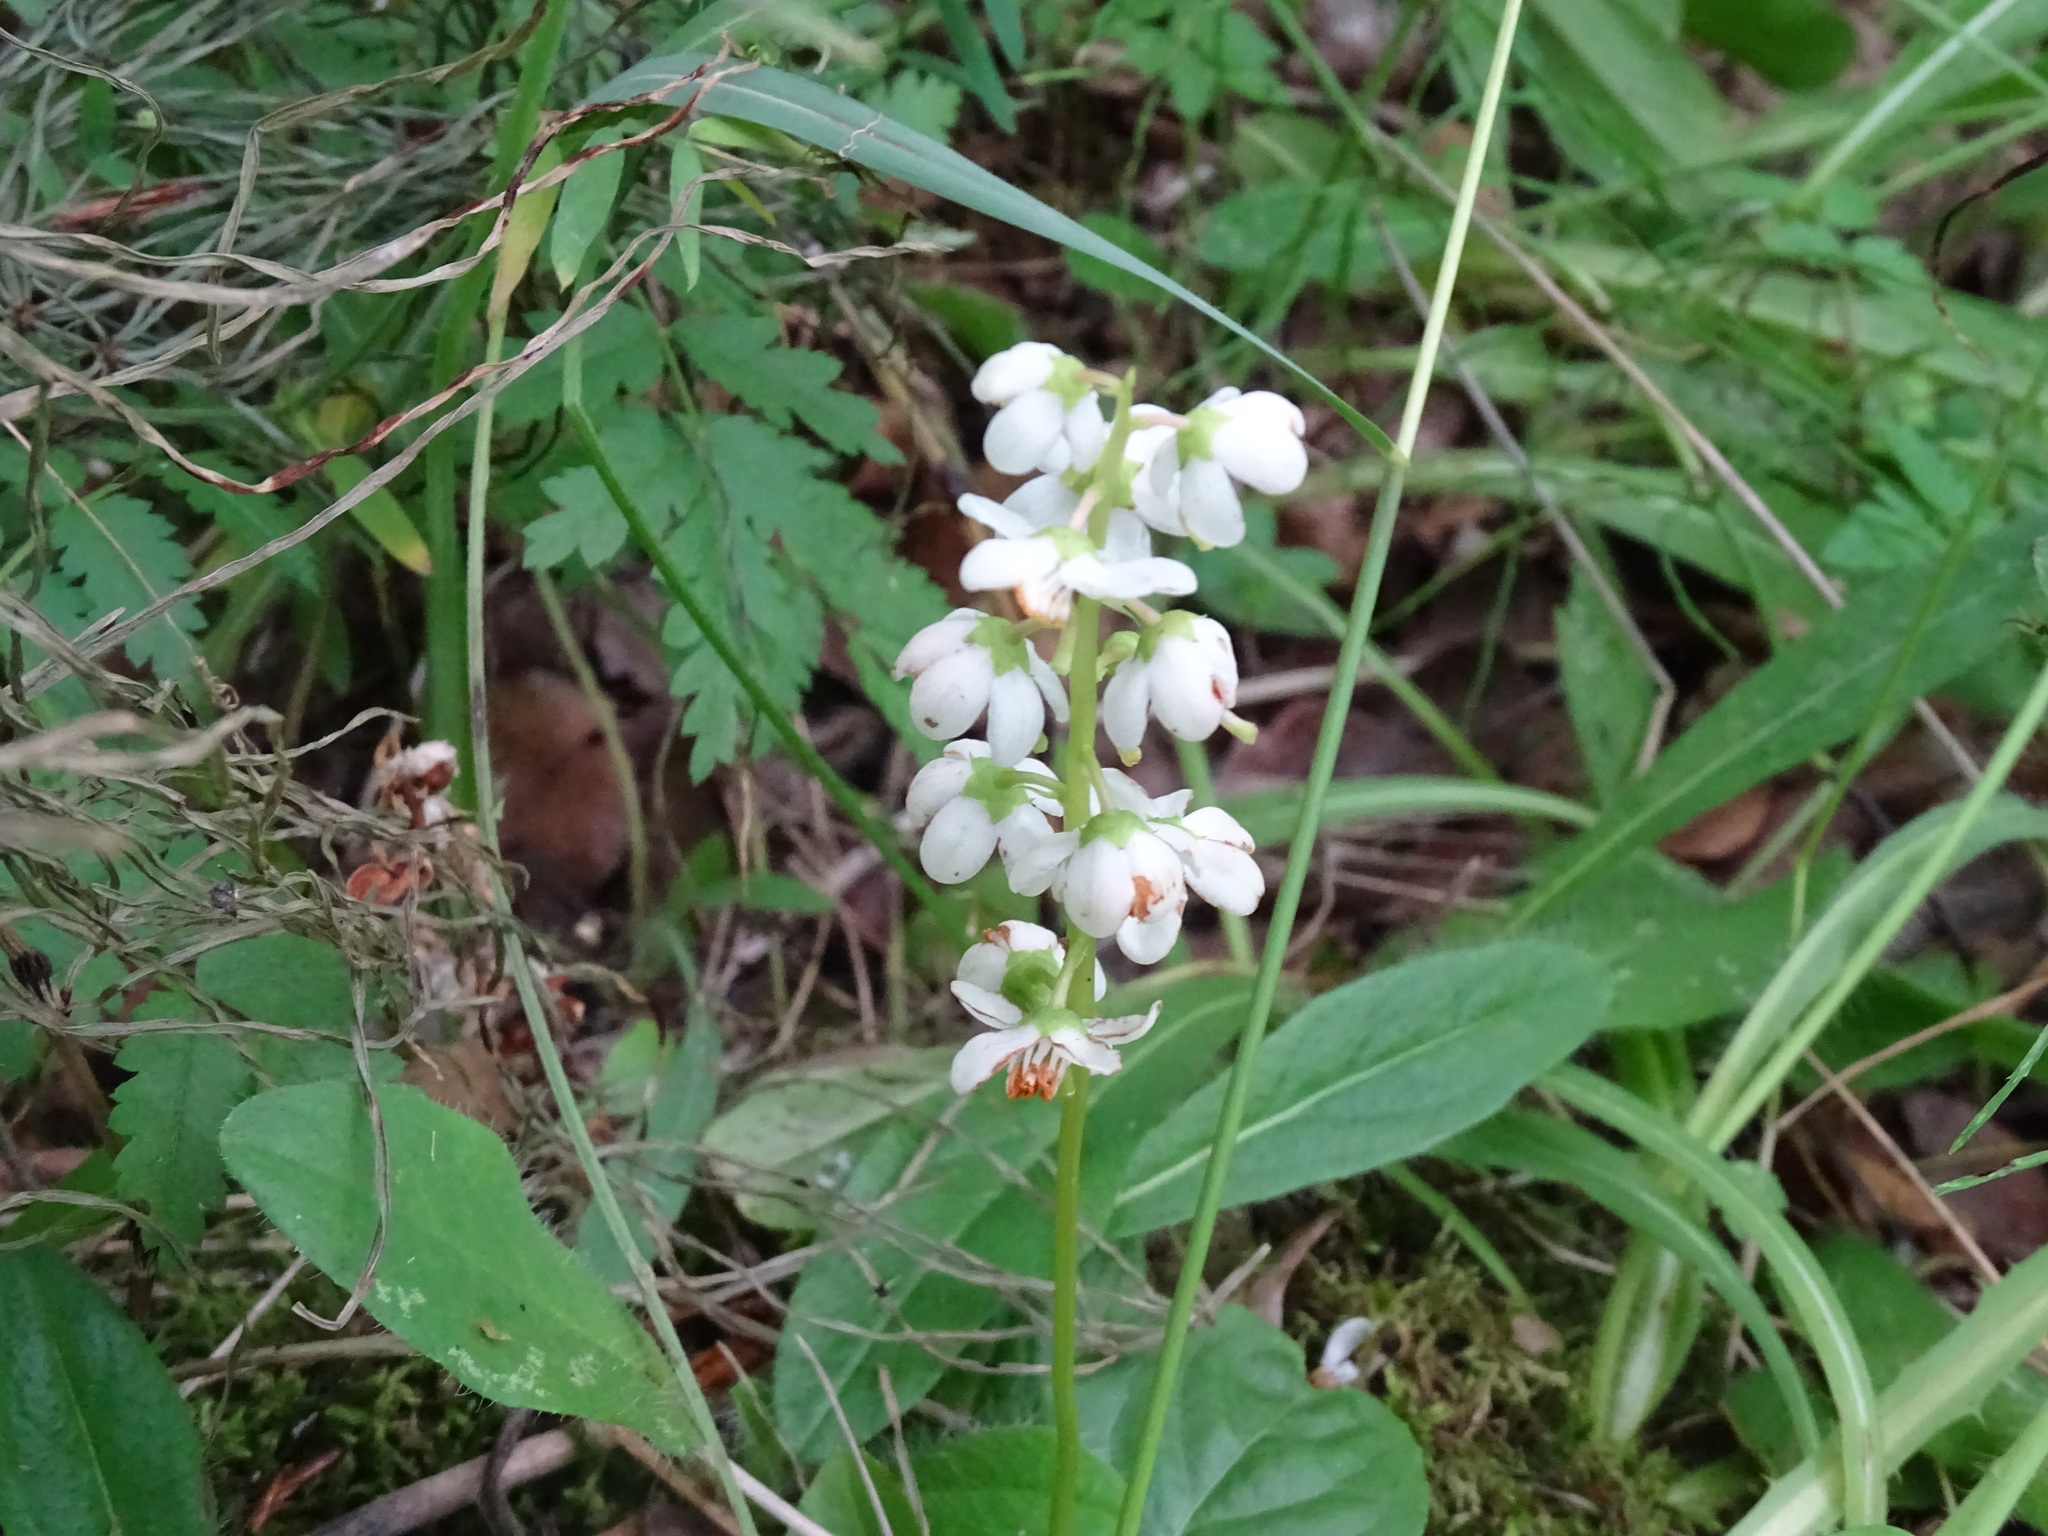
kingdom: Plantae
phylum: Tracheophyta
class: Magnoliopsida
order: Ericales
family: Ericaceae
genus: Pyrola
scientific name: Pyrola elliptica
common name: Shinleaf
